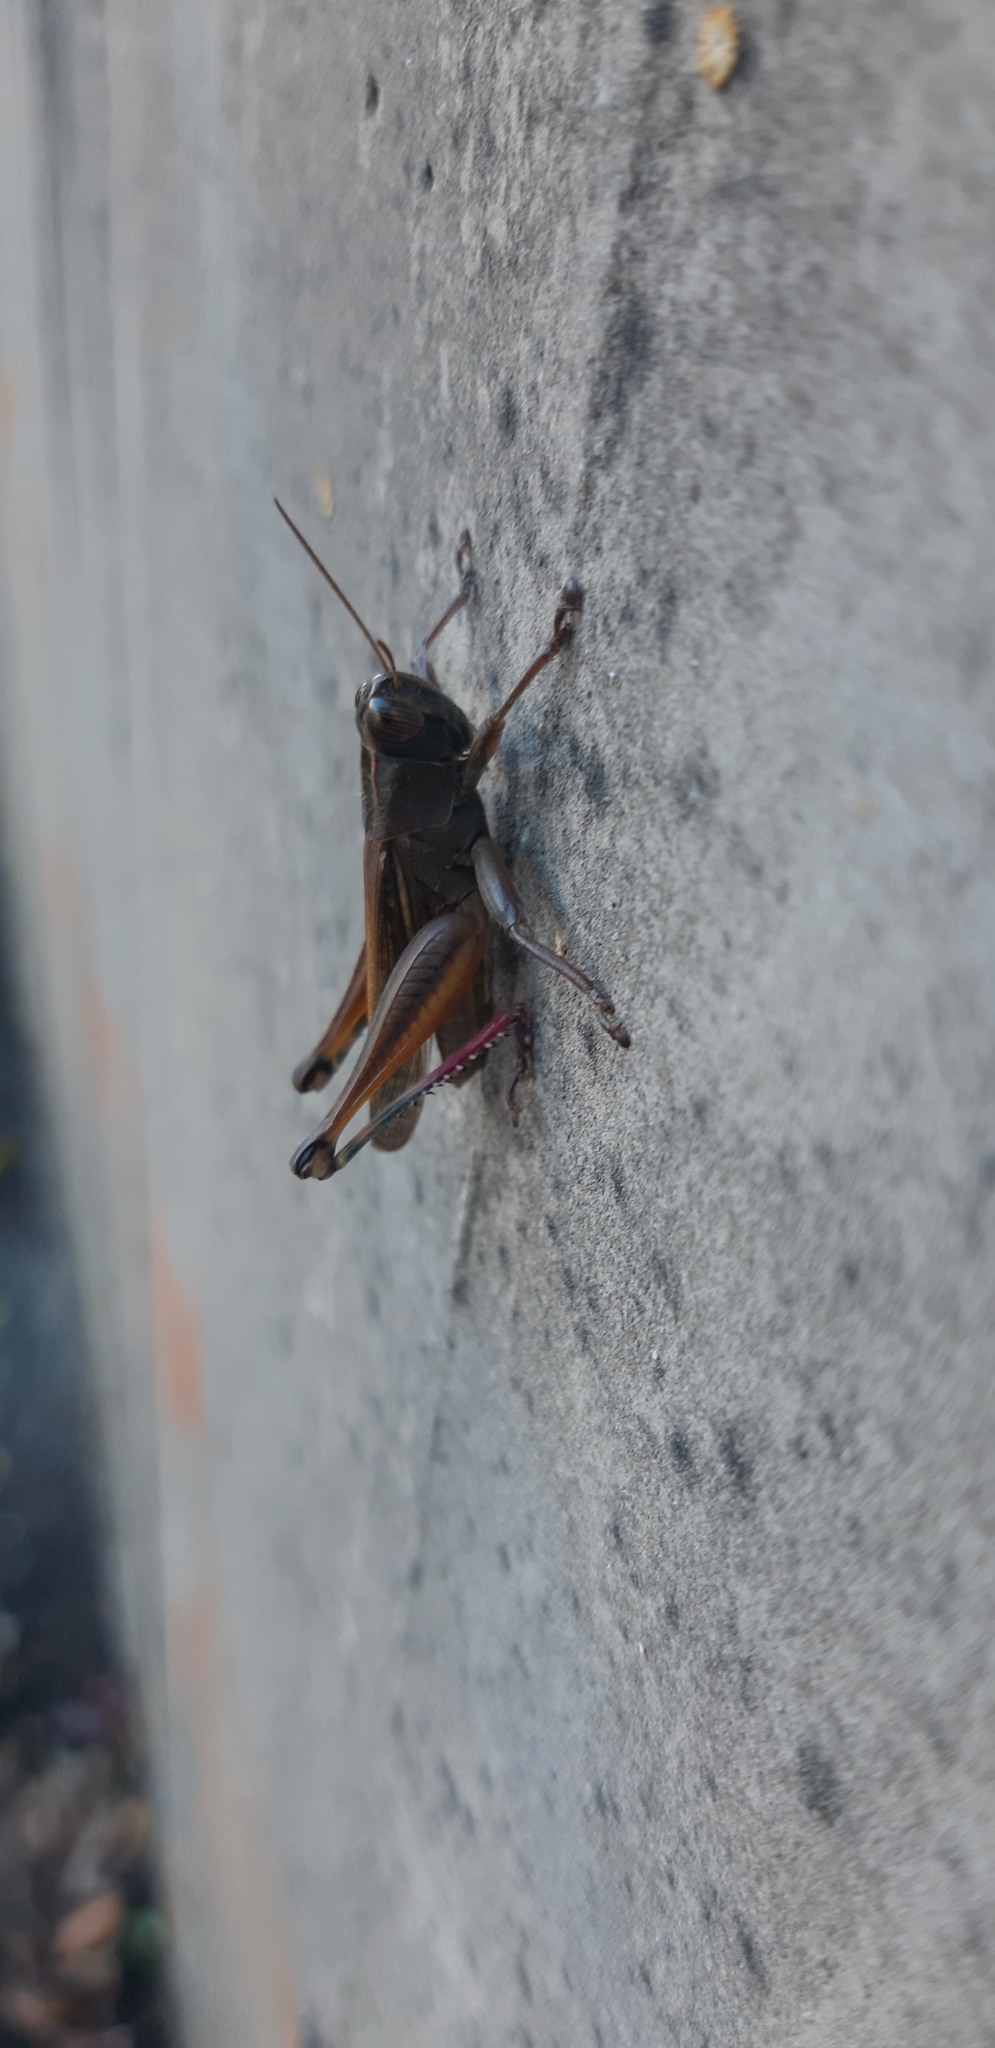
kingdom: Animalia
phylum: Arthropoda
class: Insecta
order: Orthoptera
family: Acrididae
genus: Eyprepocnemis
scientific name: Eyprepocnemis plorans
